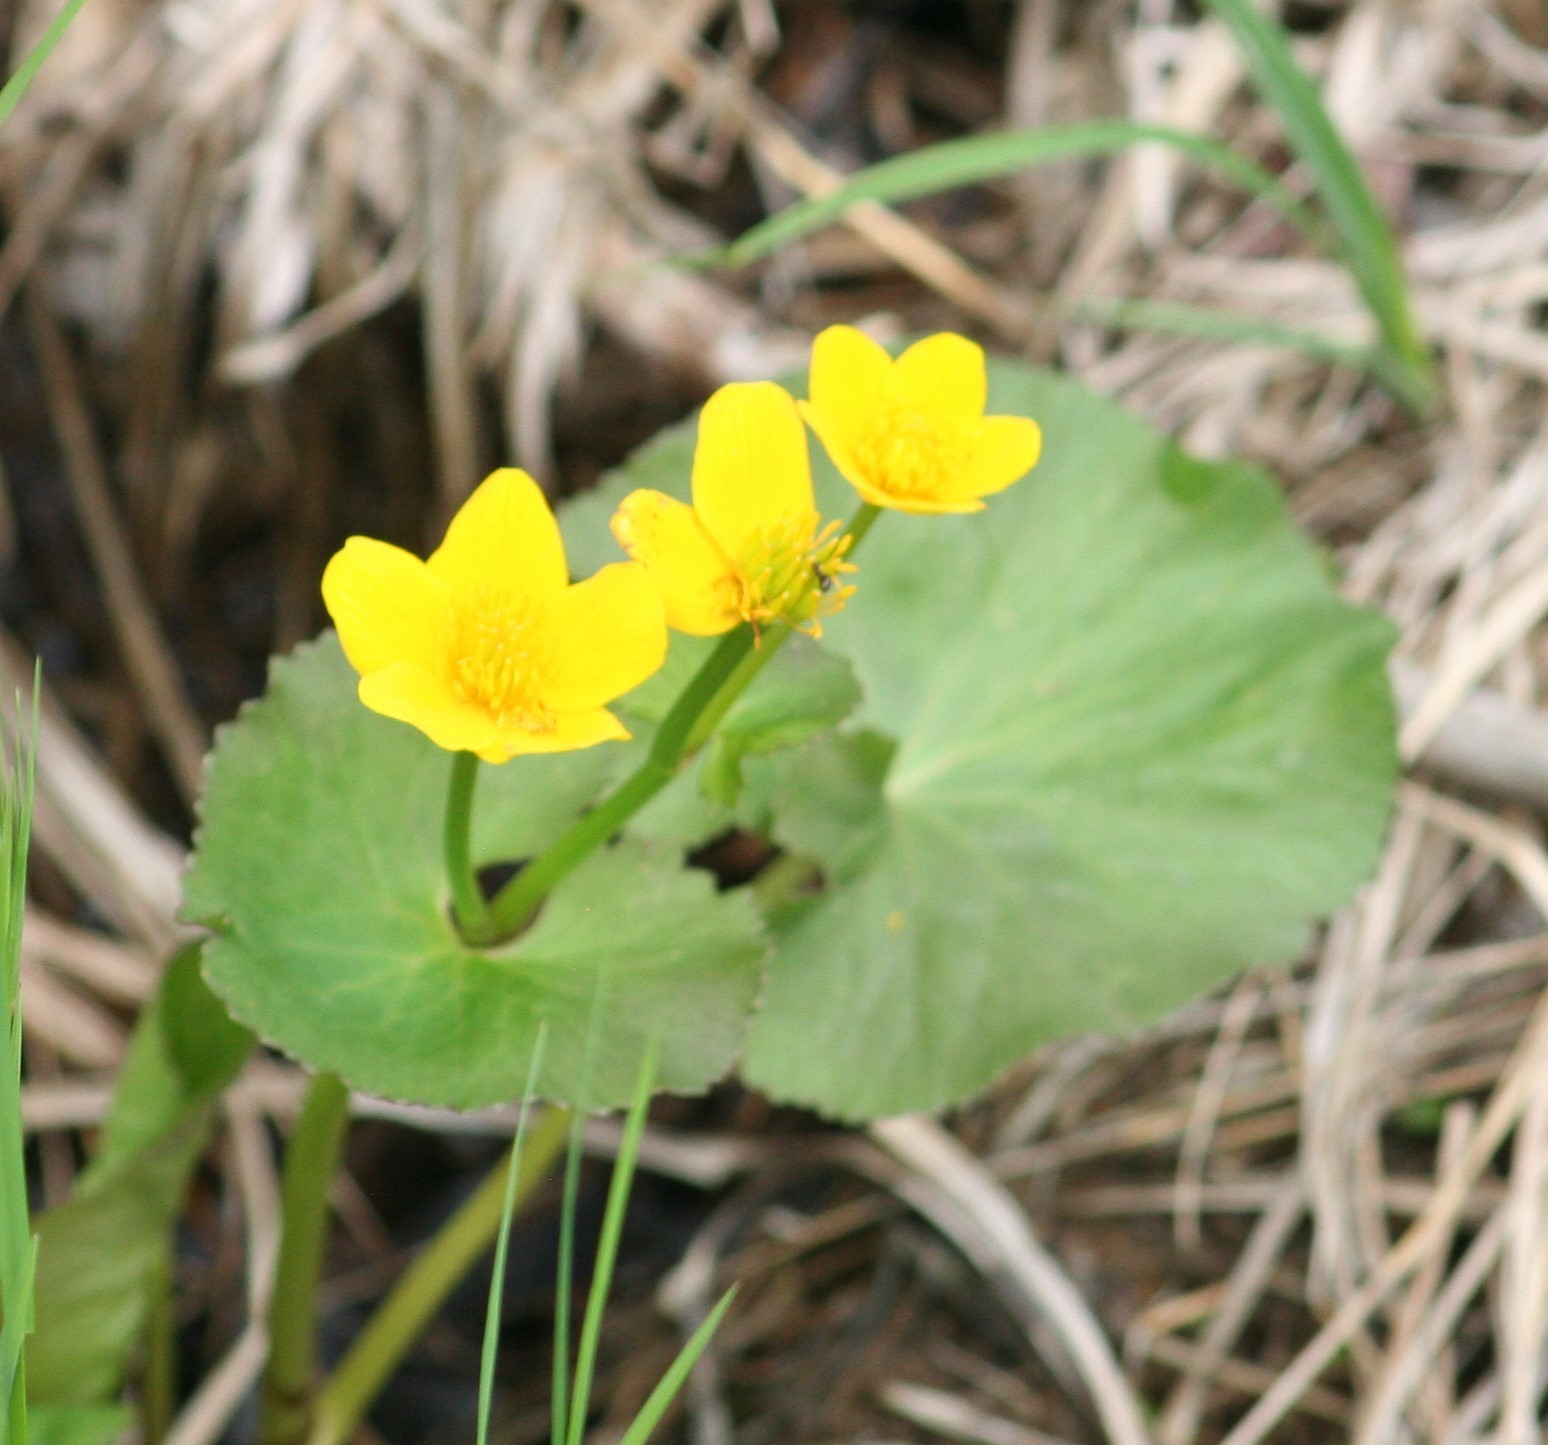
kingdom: Plantae
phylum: Tracheophyta
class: Magnoliopsida
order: Ranunculales
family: Ranunculaceae
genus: Caltha
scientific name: Caltha palustris
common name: Marsh marigold
